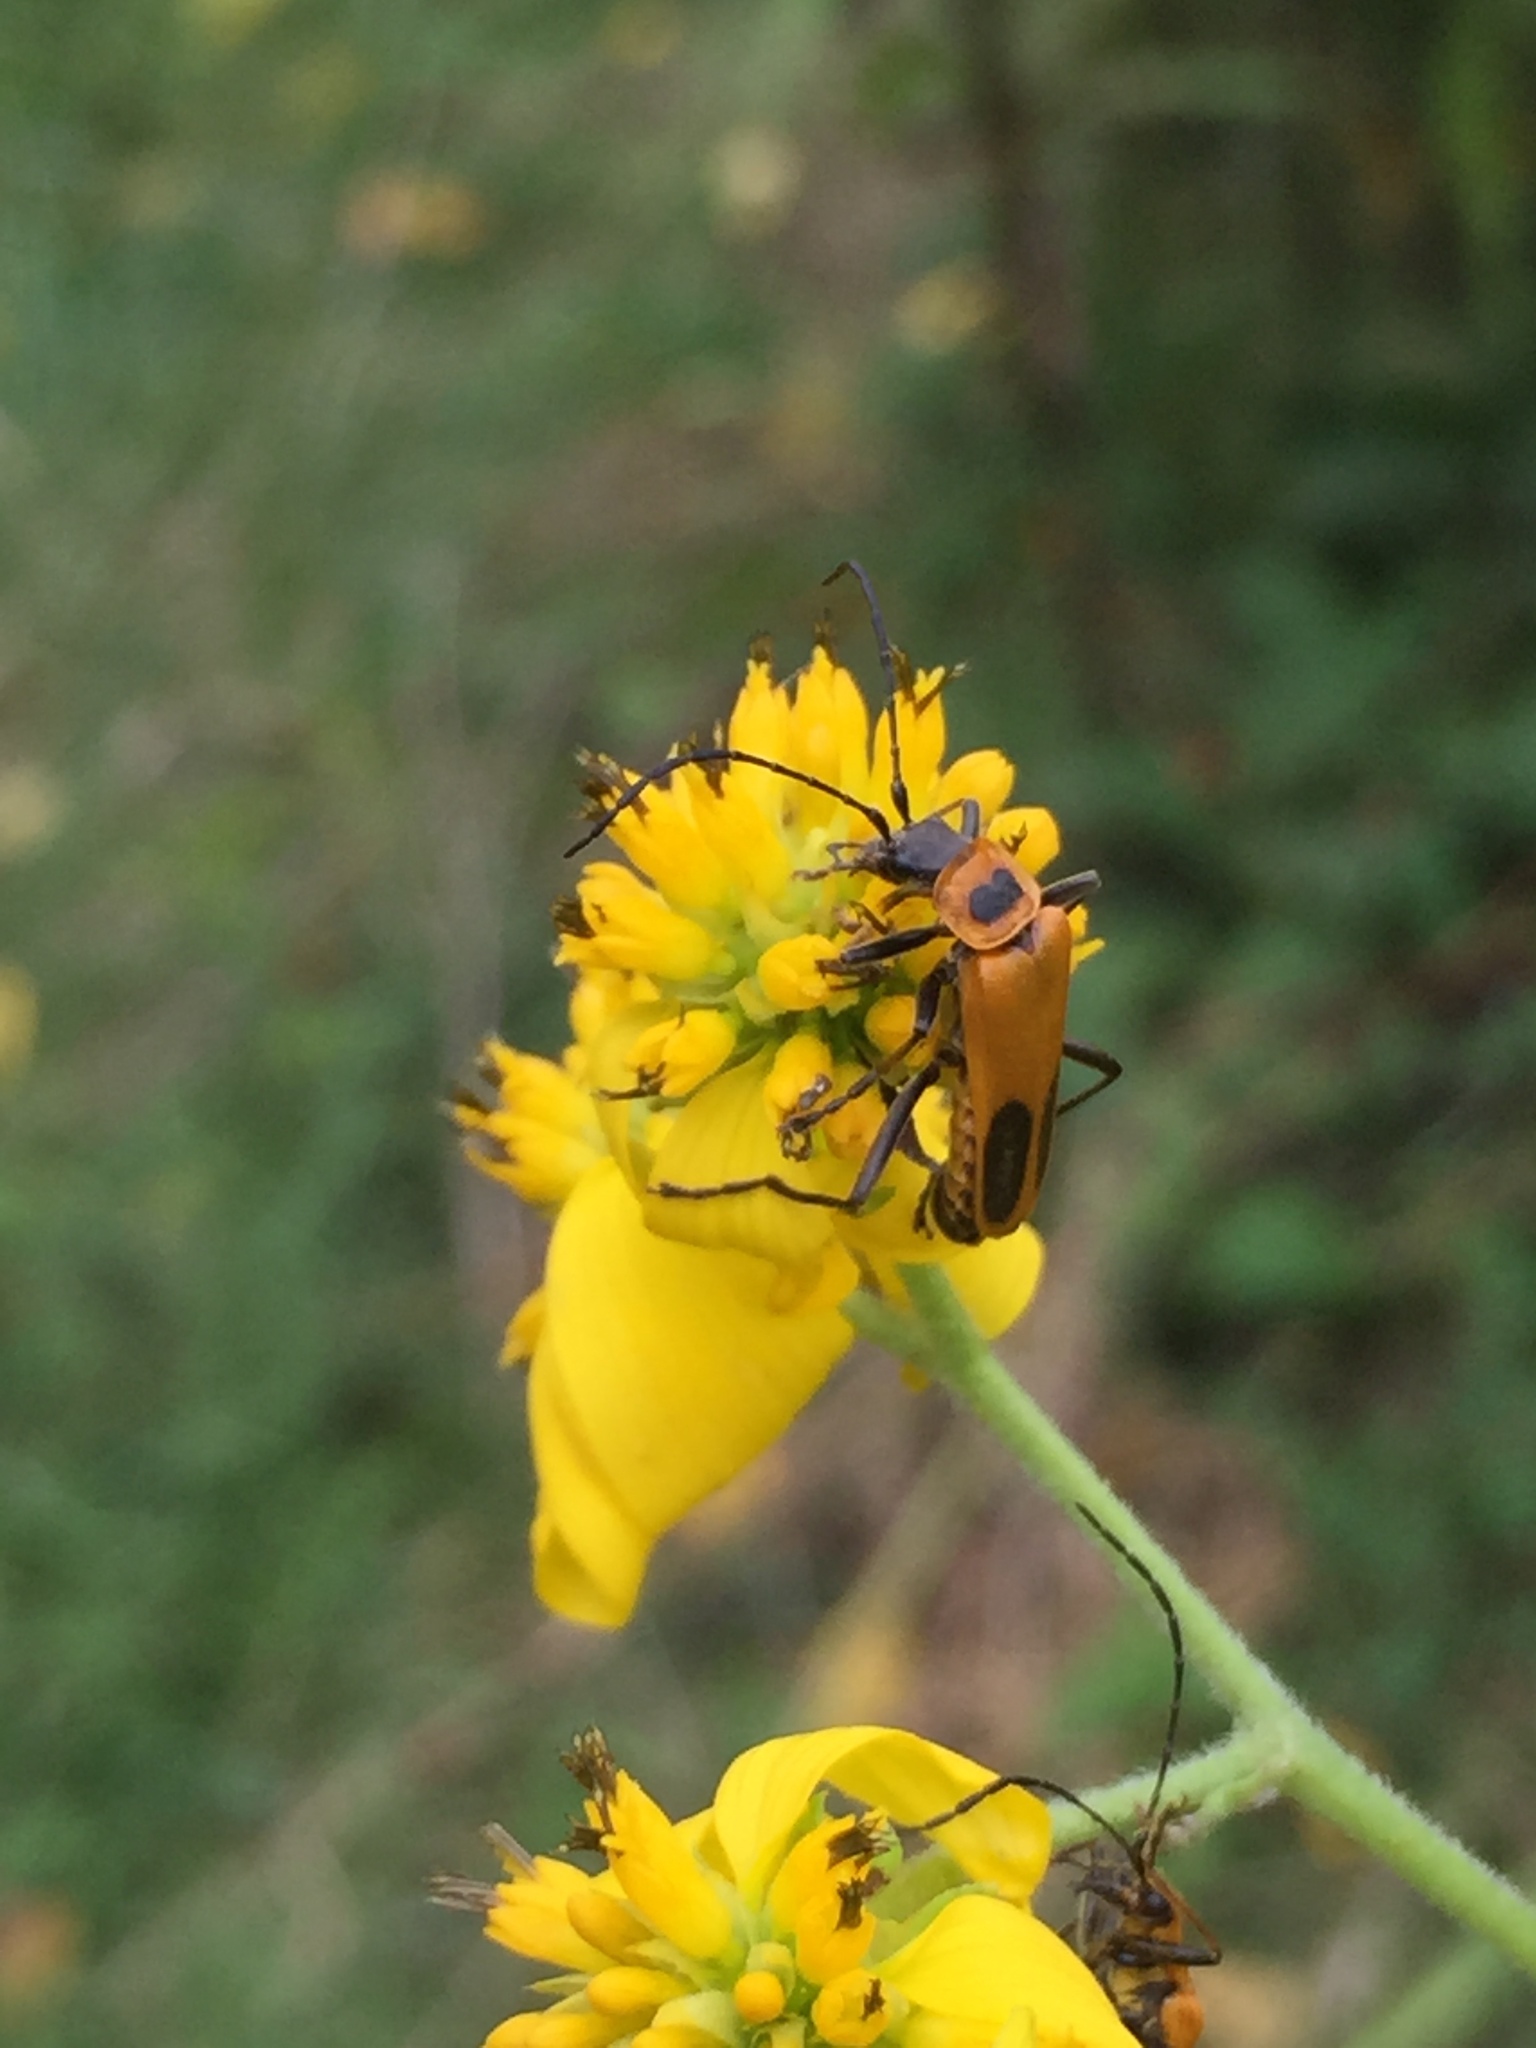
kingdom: Animalia
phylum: Arthropoda
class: Insecta
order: Coleoptera
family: Cantharidae
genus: Chauliognathus
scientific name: Chauliognathus pensylvanicus
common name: Goldenrod soldier beetle
